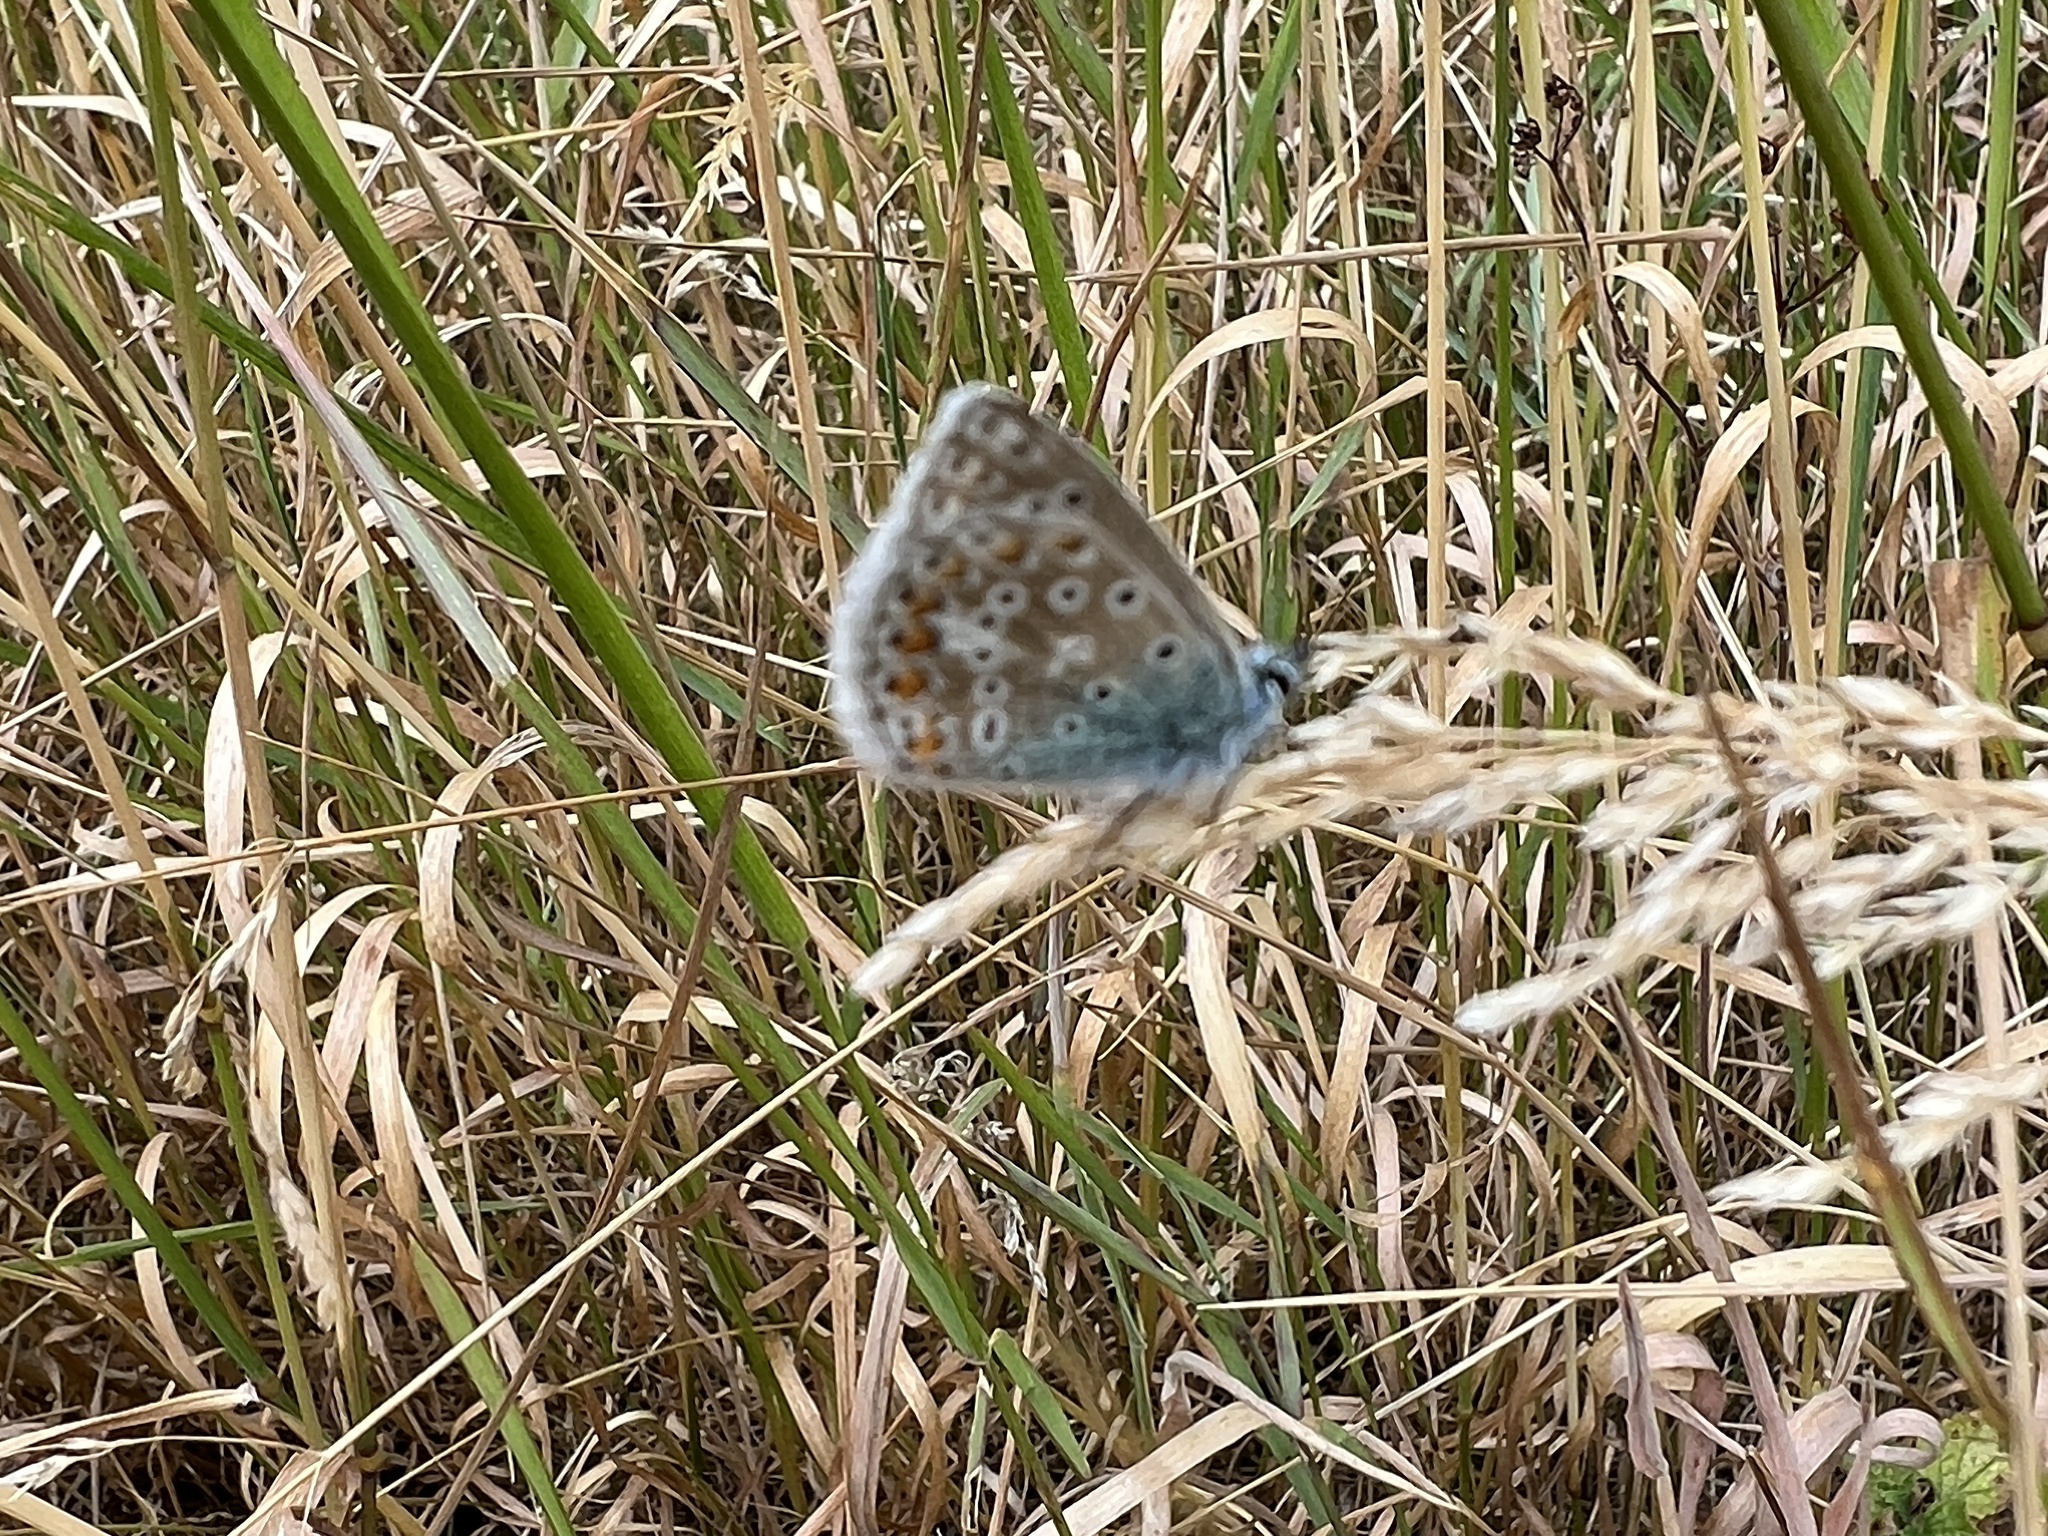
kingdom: Animalia
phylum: Arthropoda
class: Insecta
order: Lepidoptera
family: Lycaenidae
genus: Polyommatus
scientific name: Polyommatus icarus
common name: Common blue
